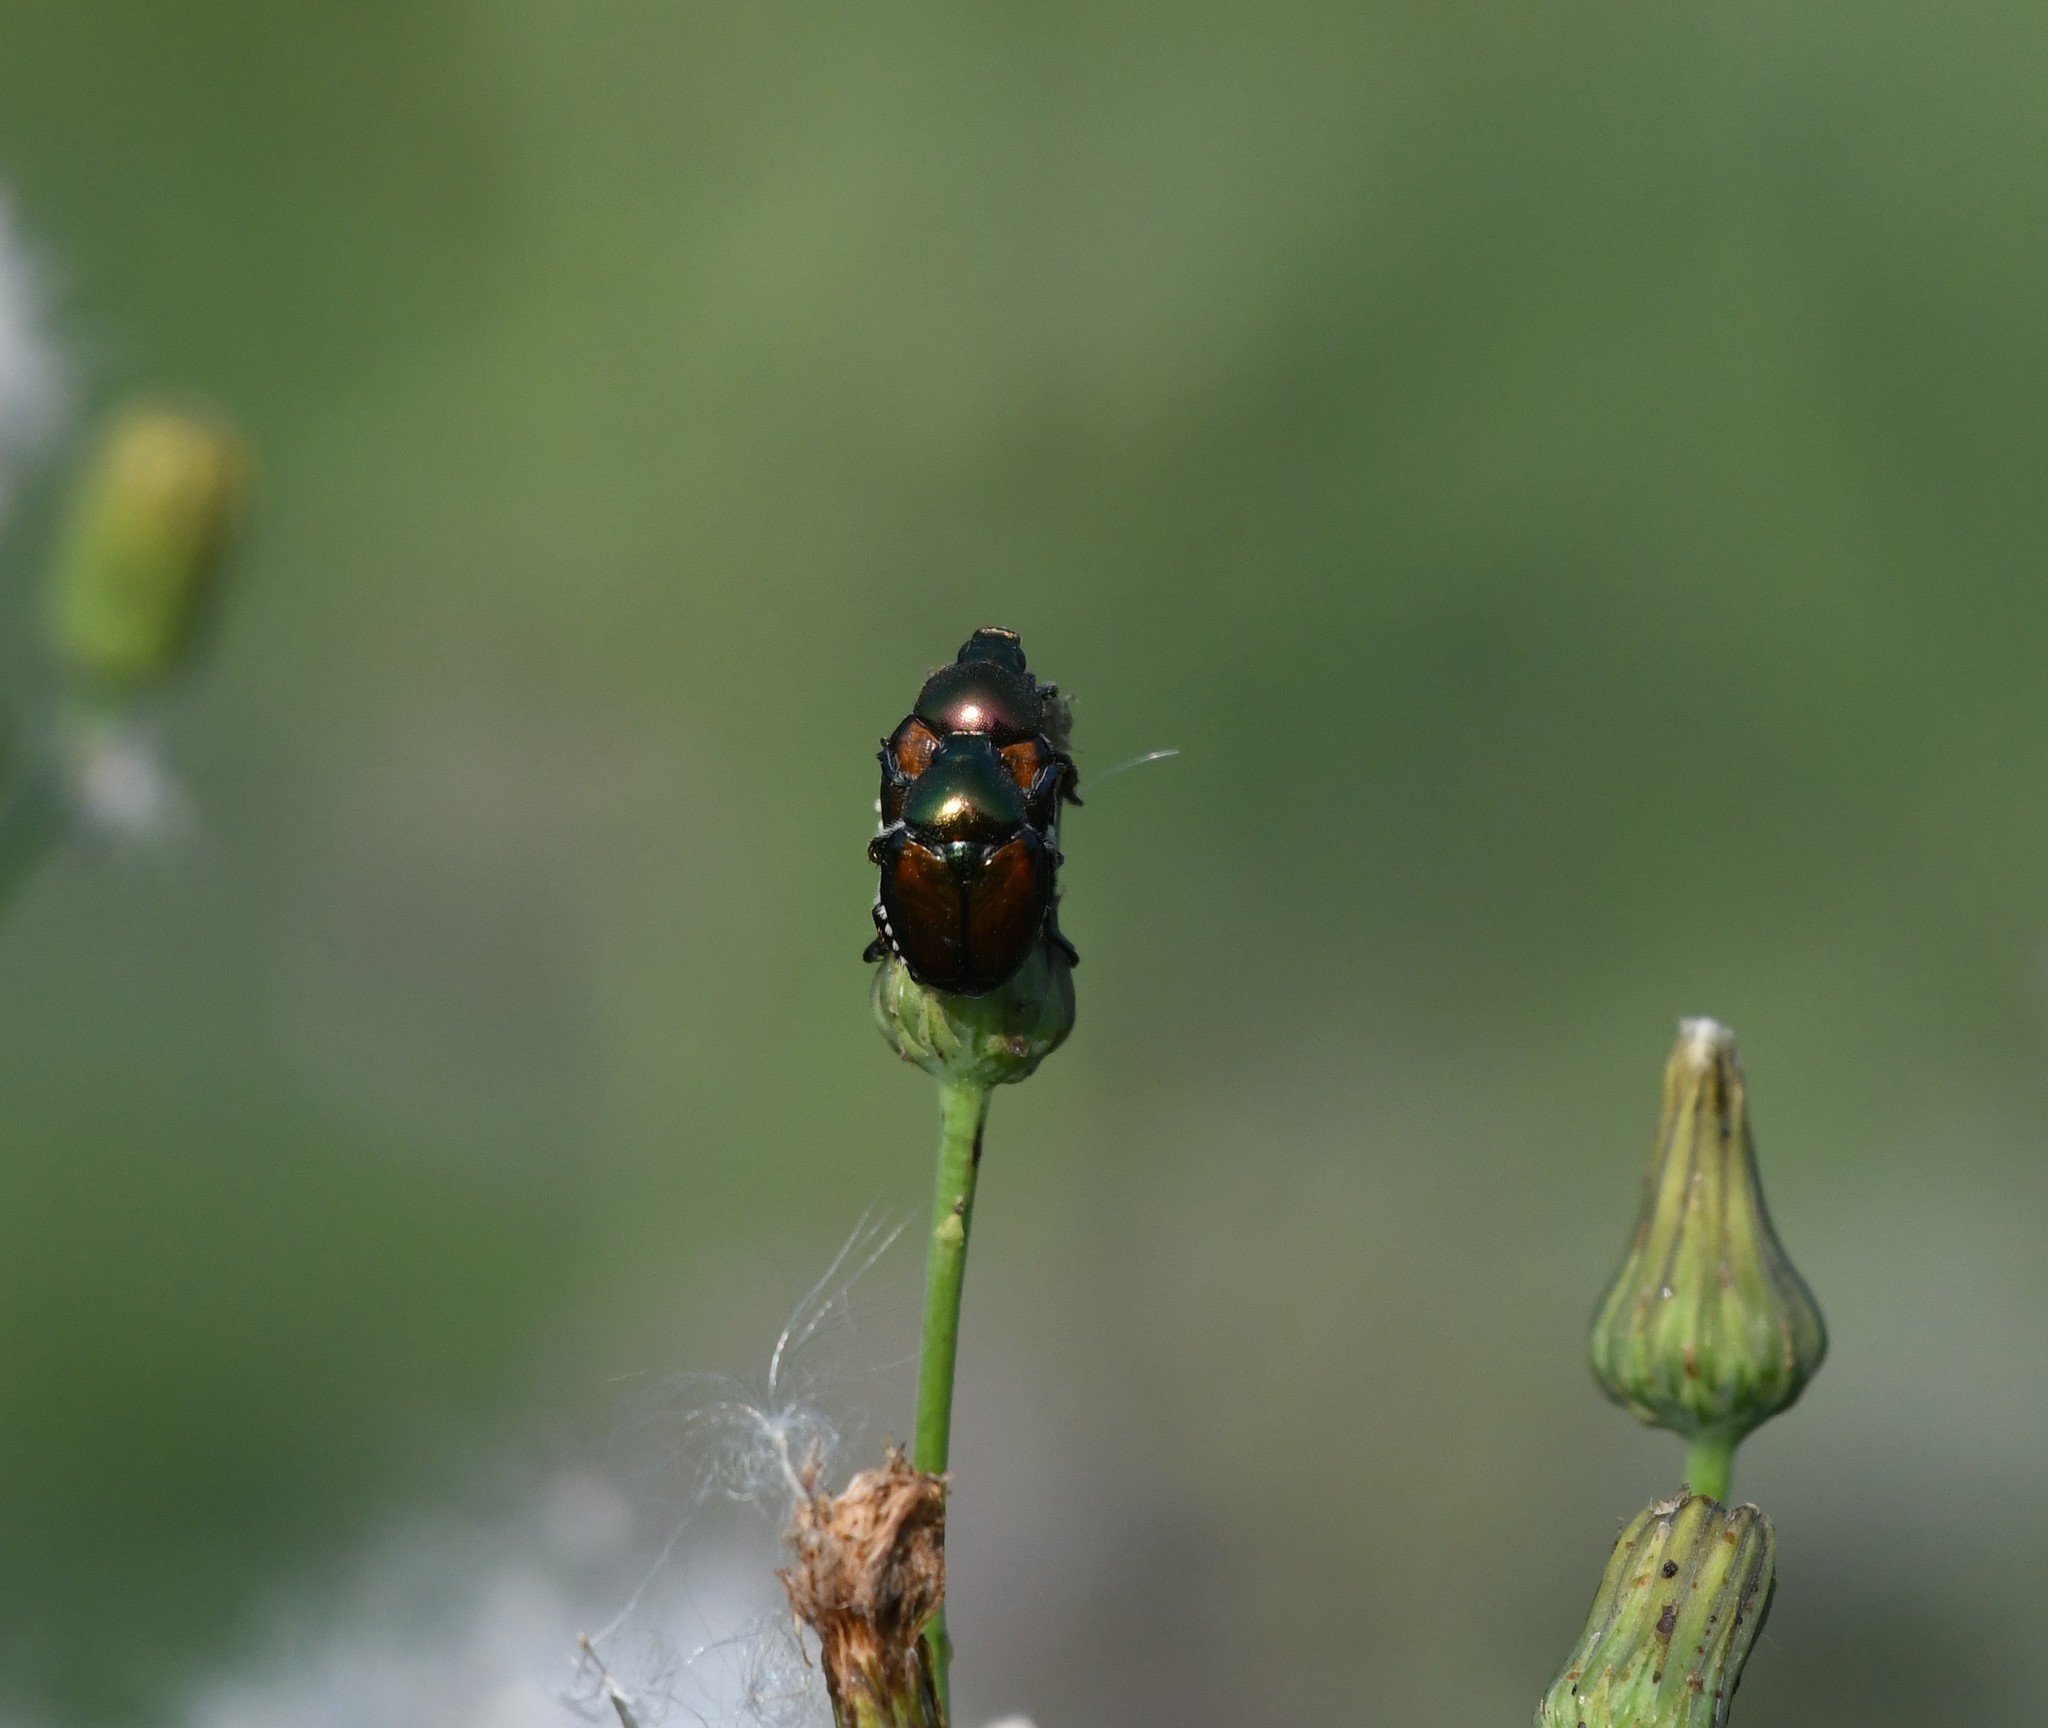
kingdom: Animalia
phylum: Arthropoda
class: Insecta
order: Coleoptera
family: Scarabaeidae
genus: Popillia
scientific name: Popillia japonica
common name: Japanese beetle
